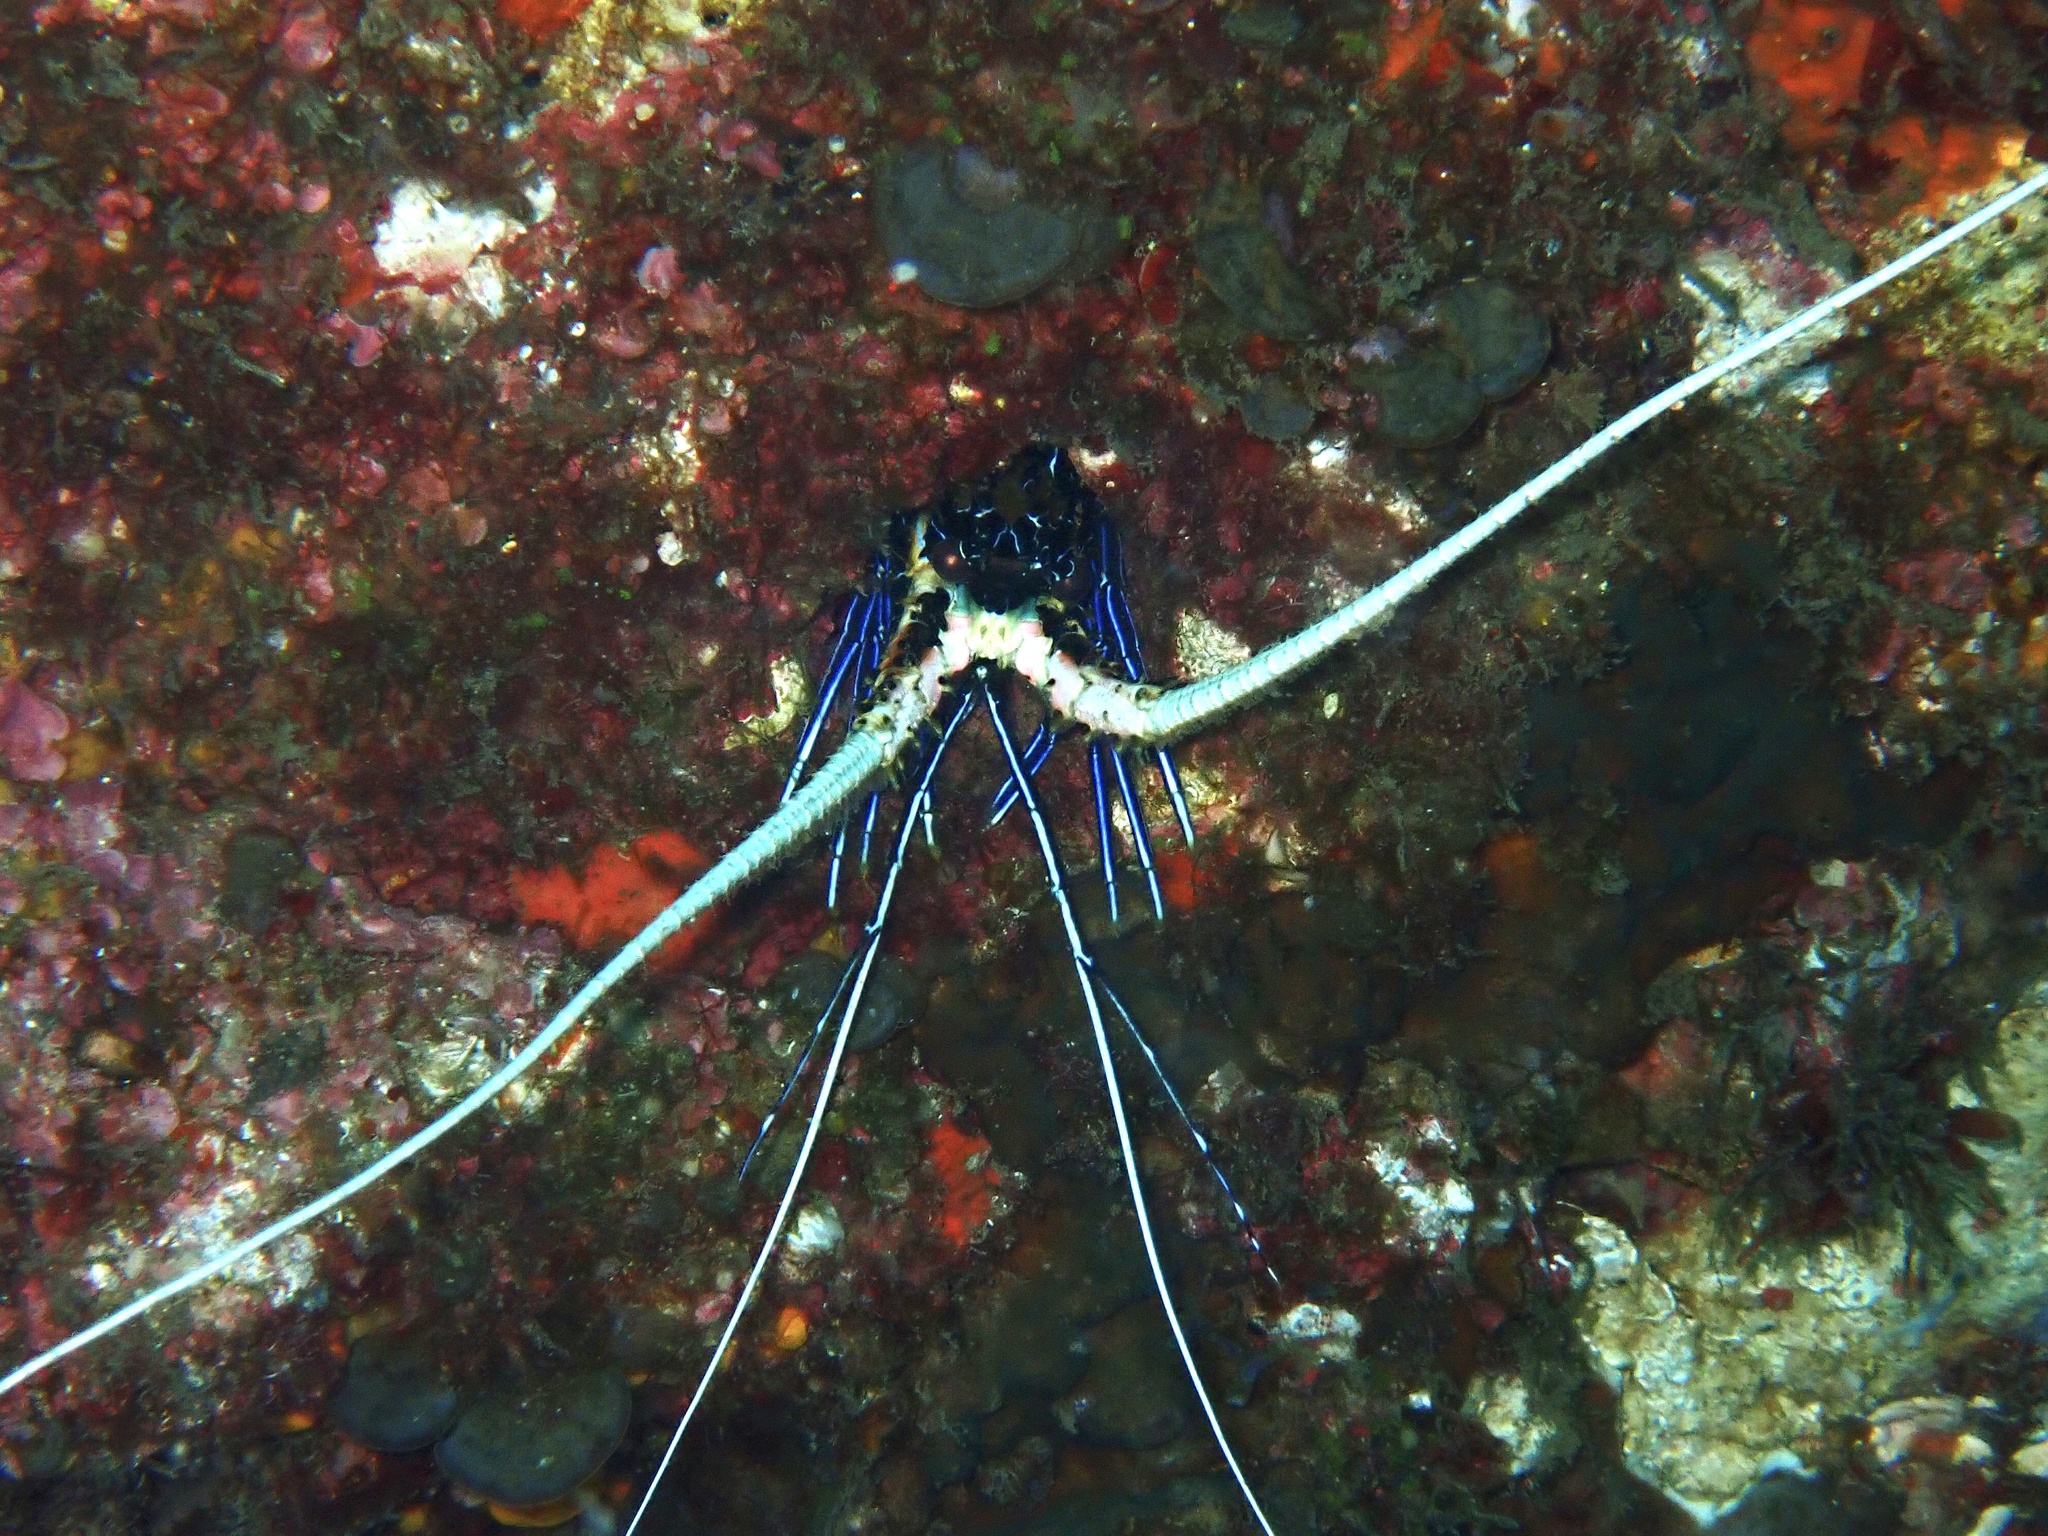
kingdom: Animalia
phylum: Arthropoda
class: Malacostraca
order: Decapoda
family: Palinuridae
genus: Panulirus
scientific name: Panulirus versicolor
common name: Painted spiny lobster
